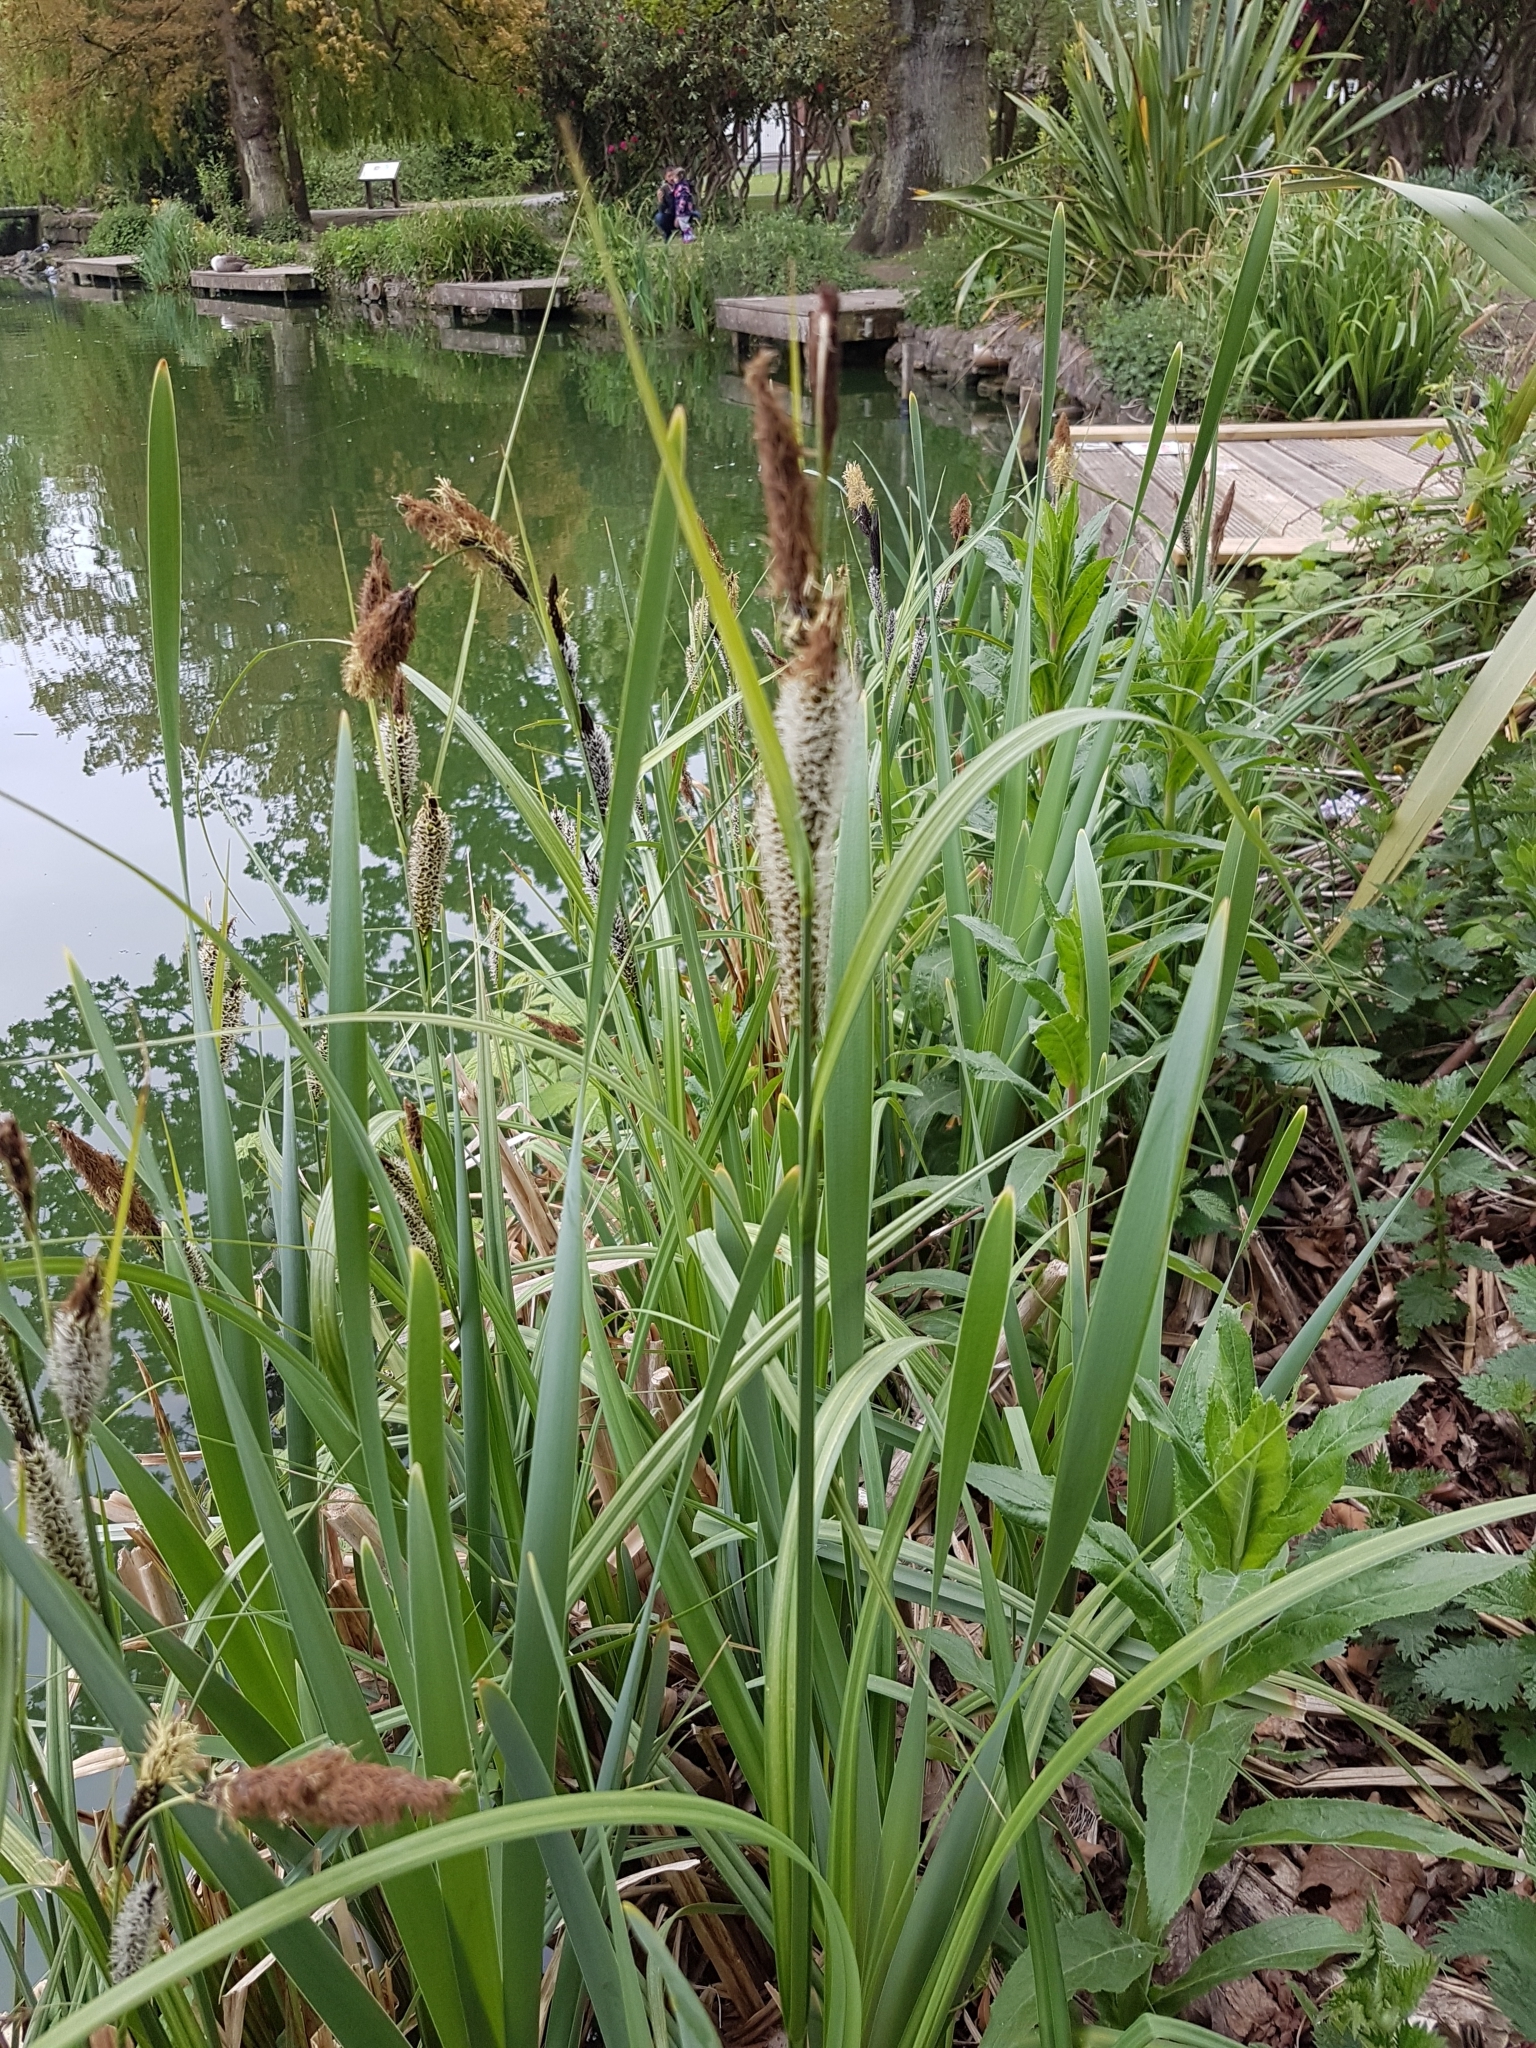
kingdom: Plantae
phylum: Tracheophyta
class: Liliopsida
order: Poales
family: Cyperaceae
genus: Carex
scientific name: Carex riparia
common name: Greater pond-sedge
